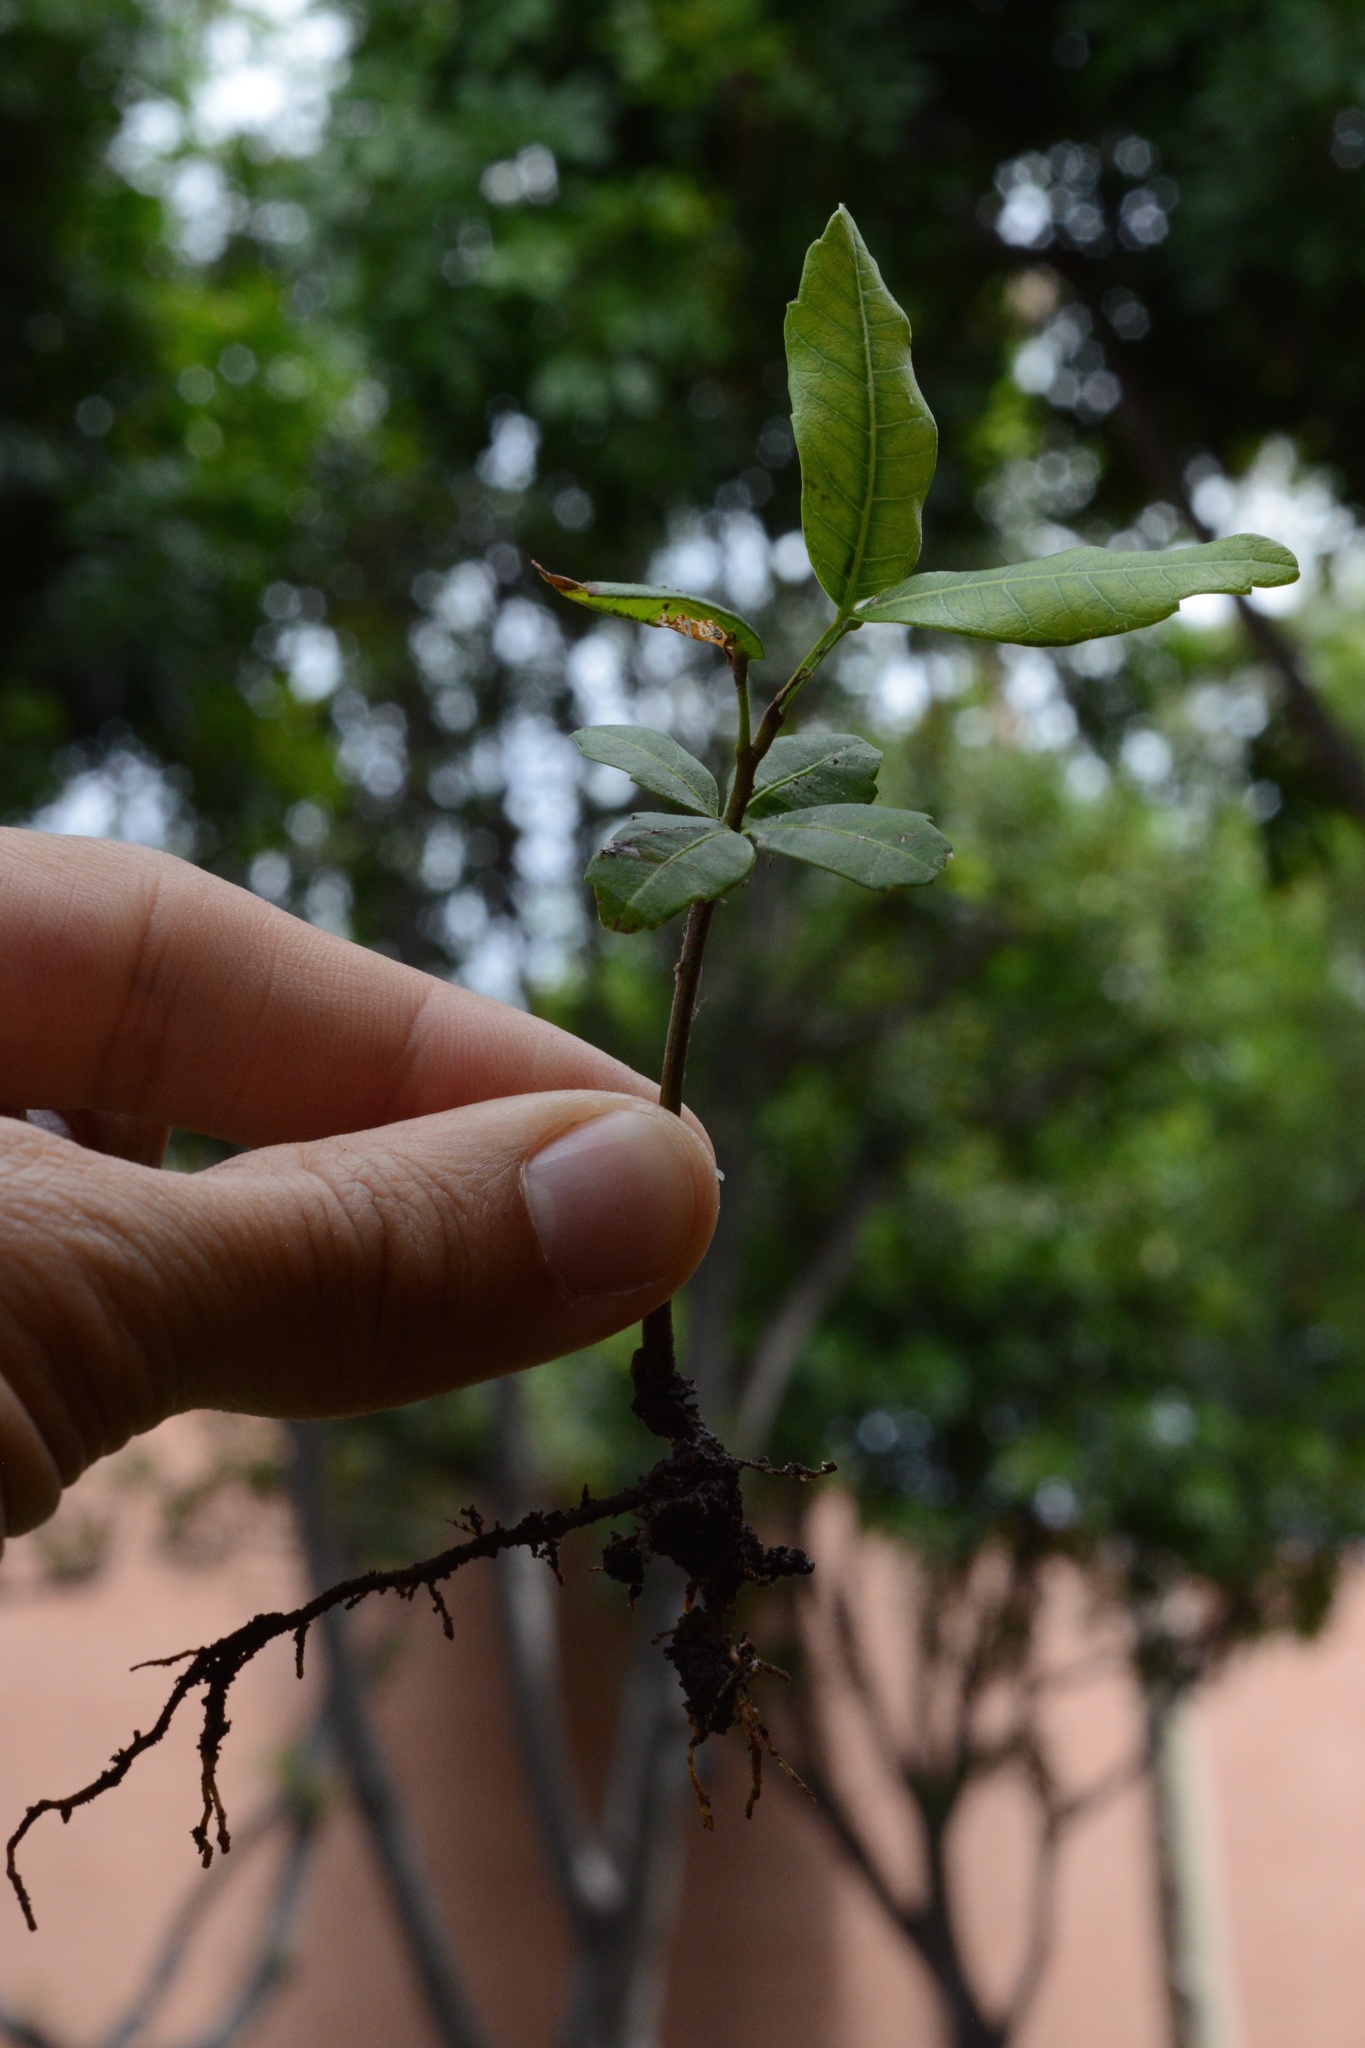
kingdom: Plantae
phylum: Tracheophyta
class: Magnoliopsida
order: Fabales
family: Fabaceae
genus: Ceratonia
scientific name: Ceratonia siliqua
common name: Carob
